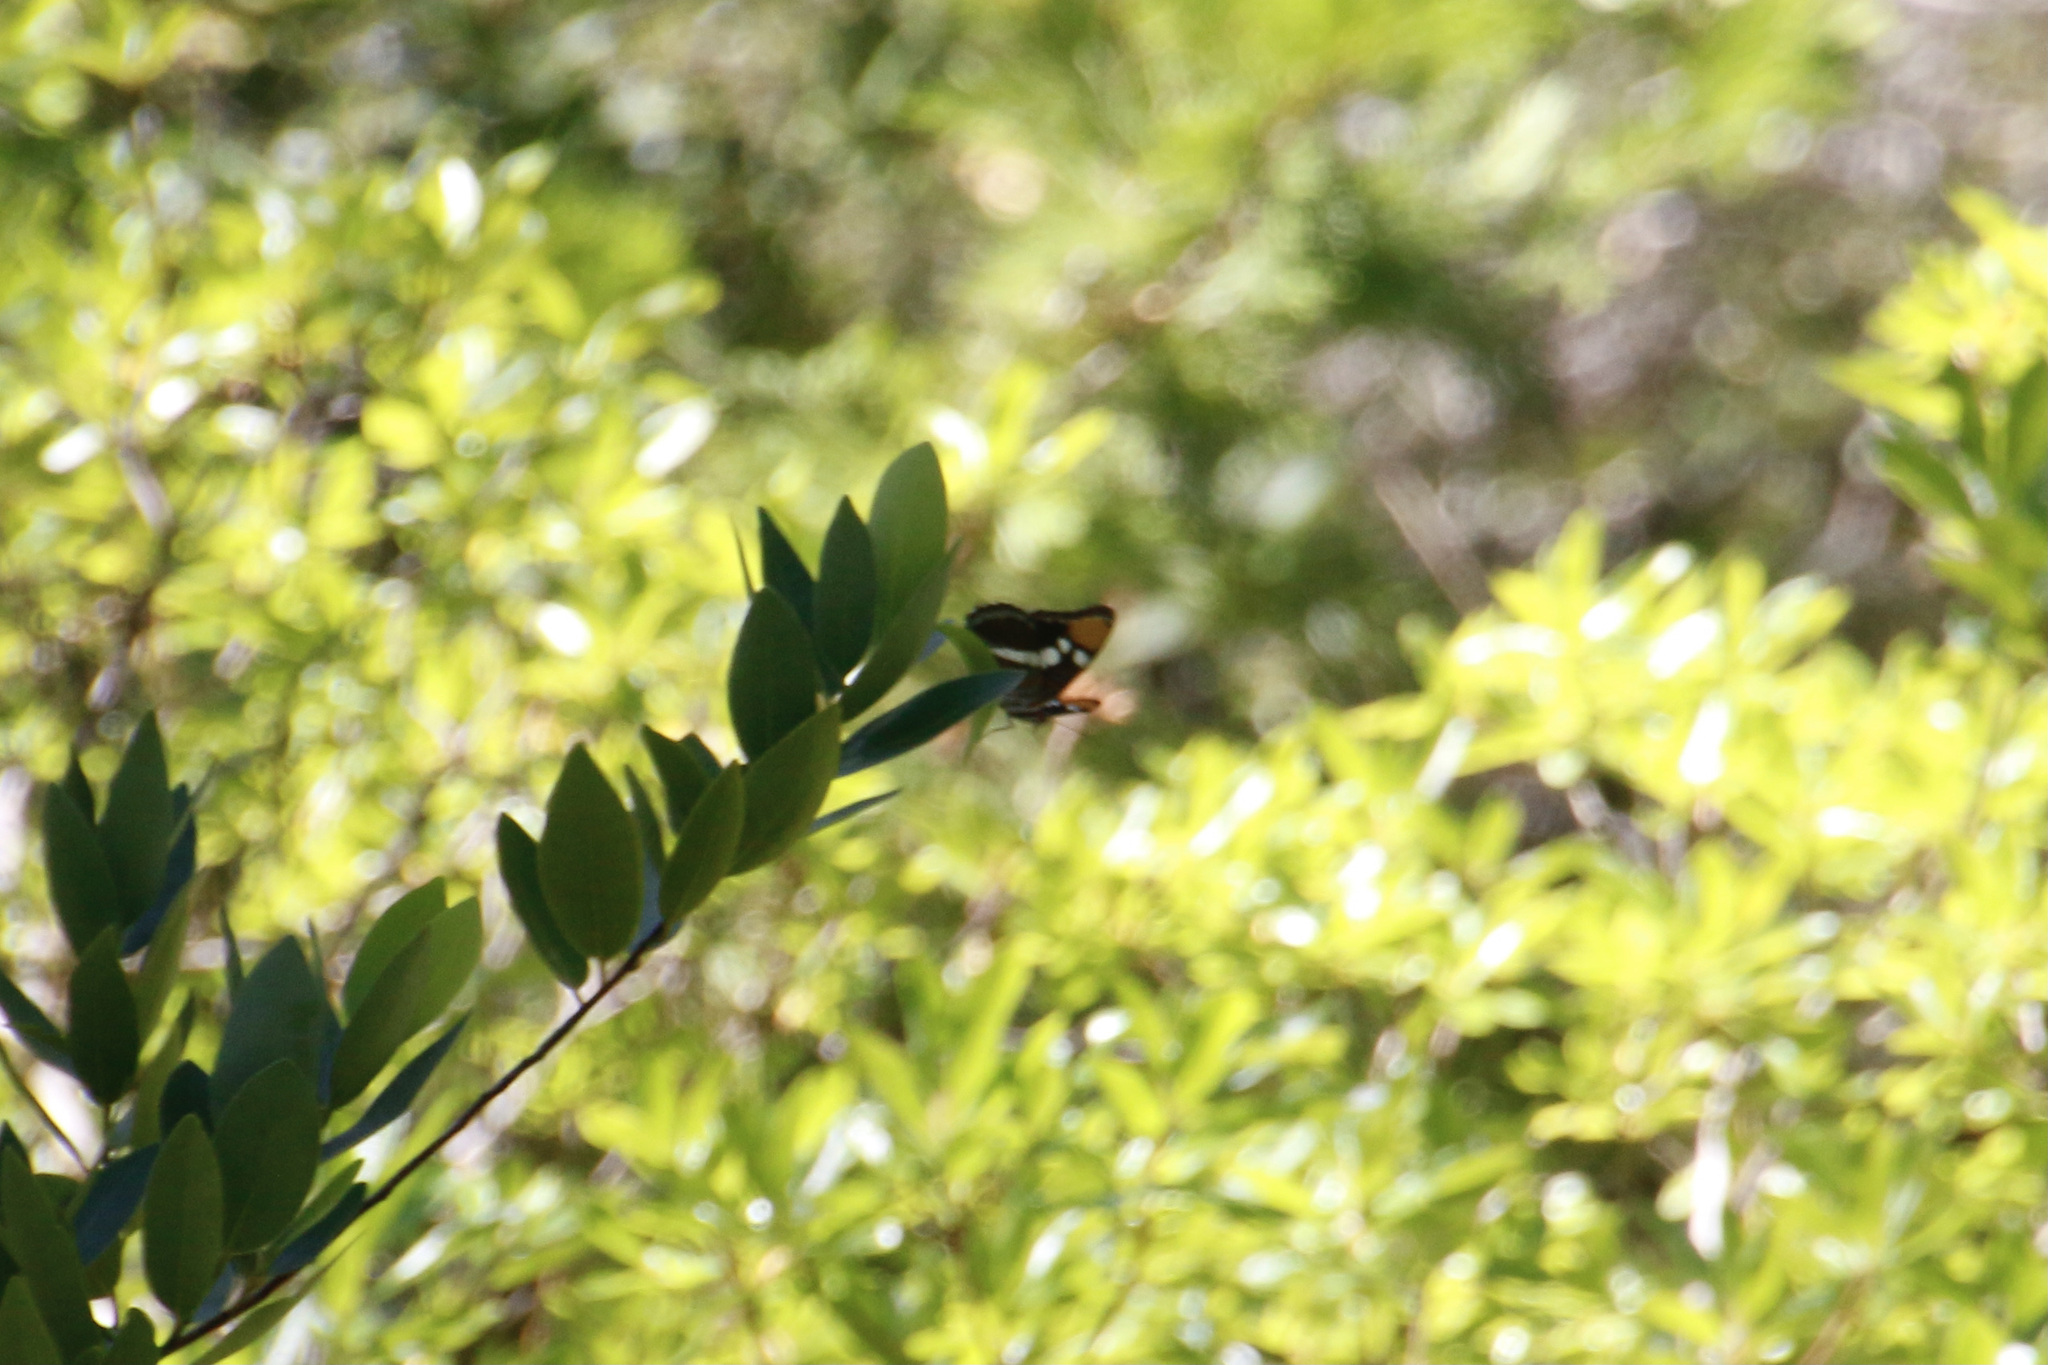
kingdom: Animalia
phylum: Arthropoda
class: Insecta
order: Lepidoptera
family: Nymphalidae
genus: Limenitis
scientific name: Limenitis bredowii
